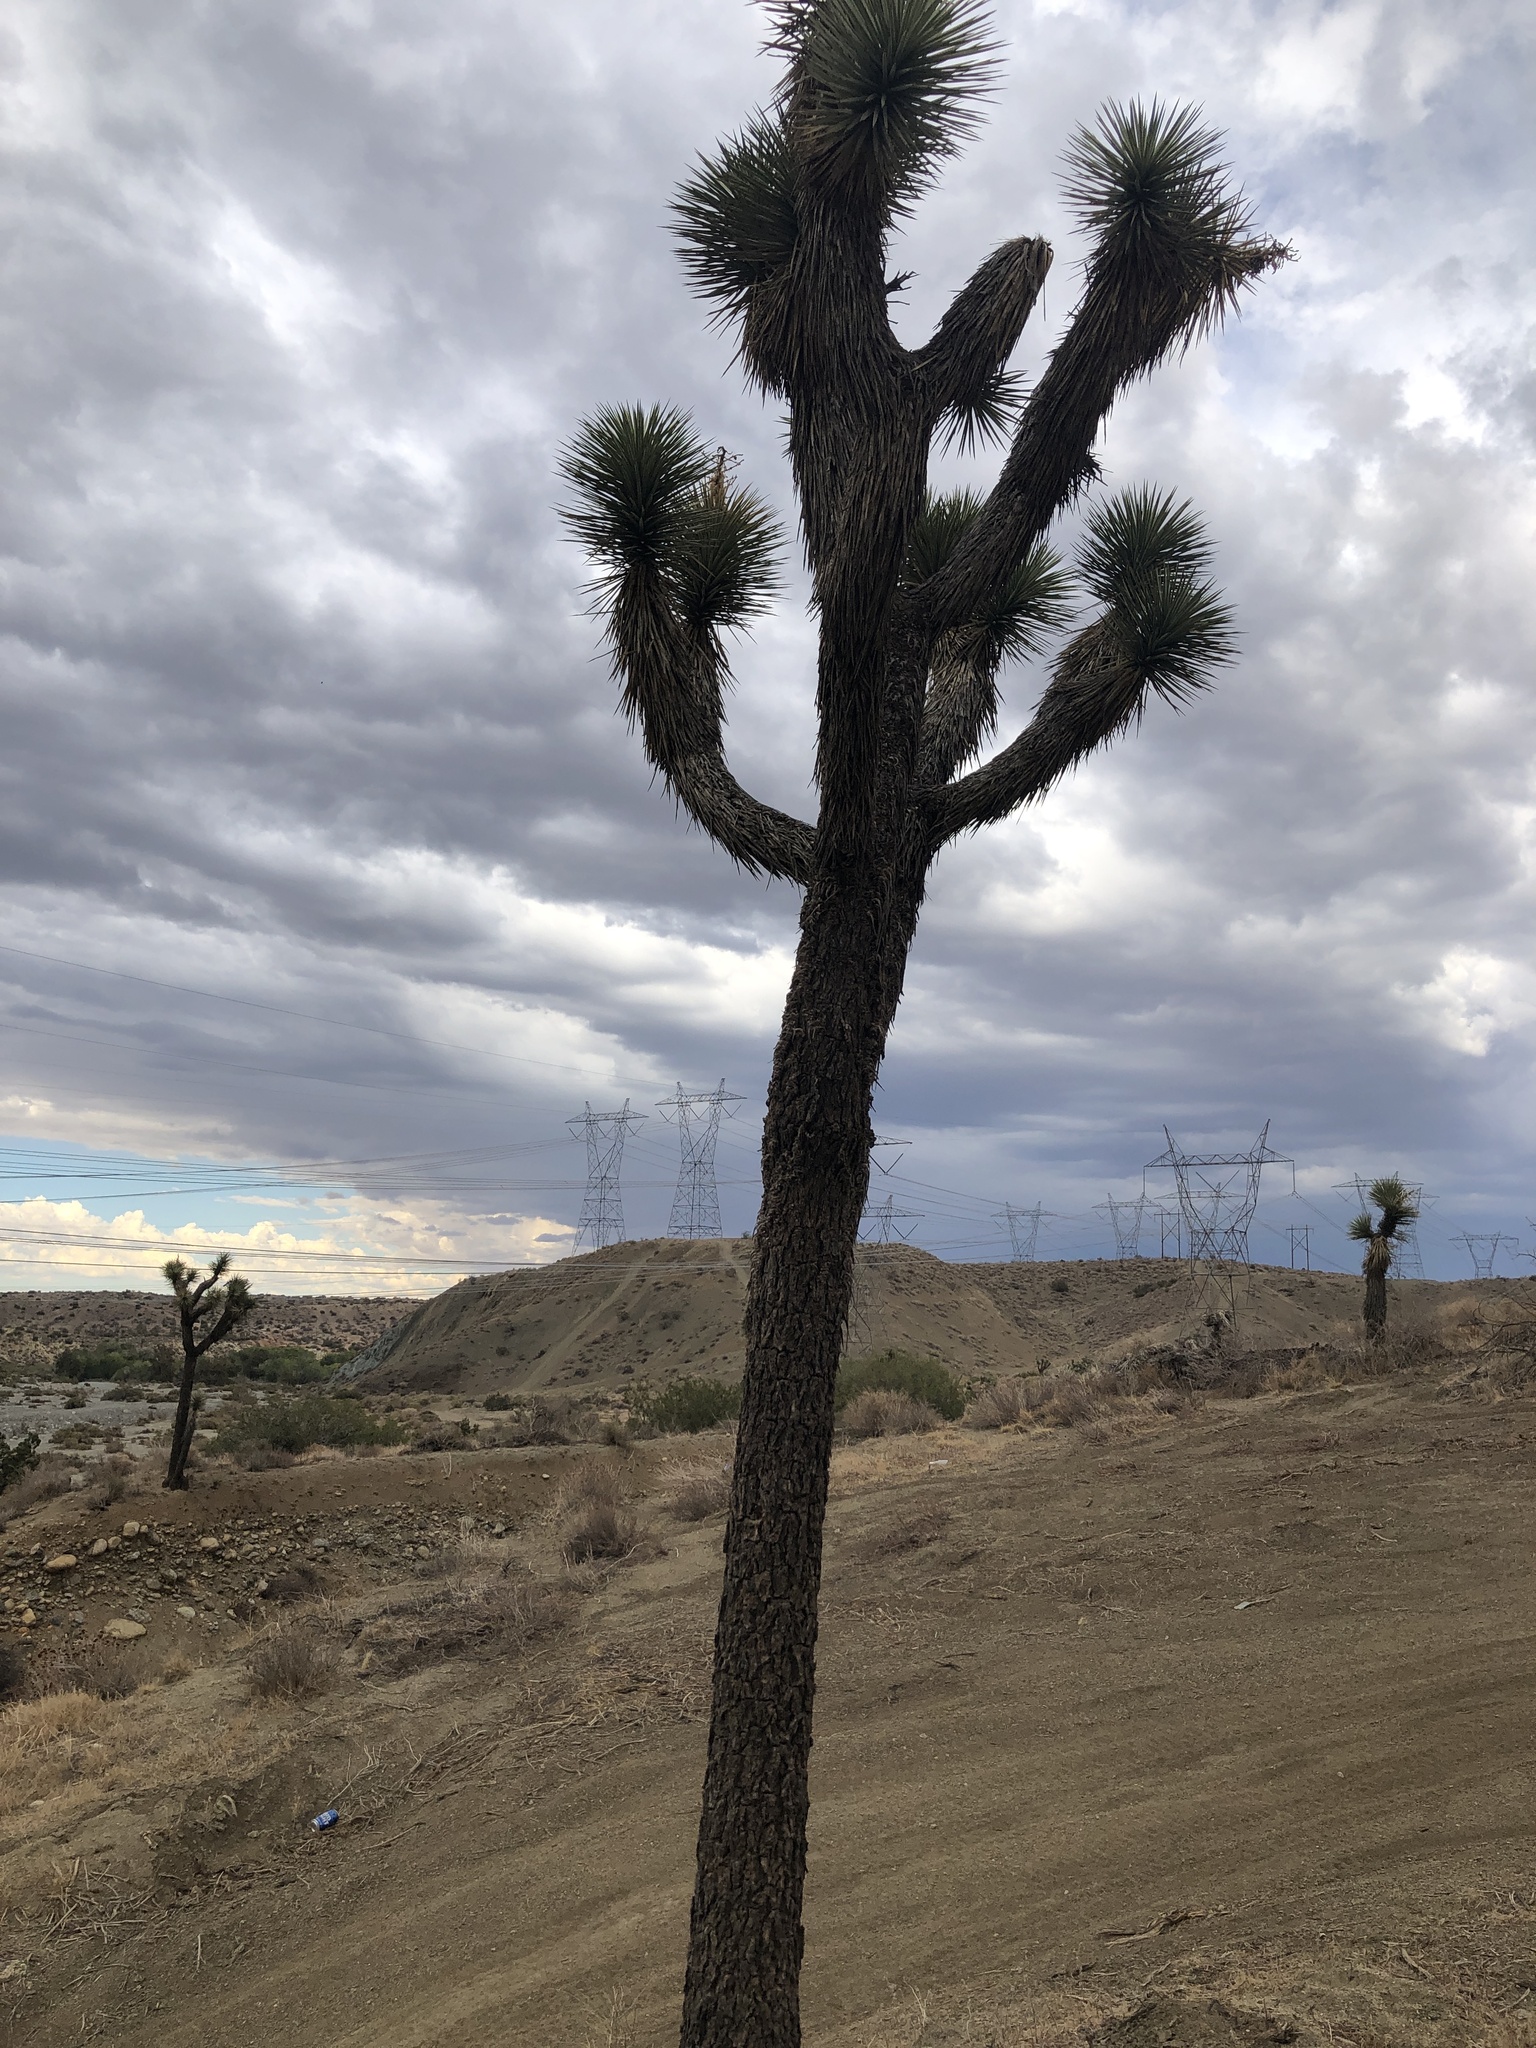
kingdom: Plantae
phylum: Tracheophyta
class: Liliopsida
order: Asparagales
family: Asparagaceae
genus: Yucca
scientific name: Yucca brevifolia
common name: Joshua tree
